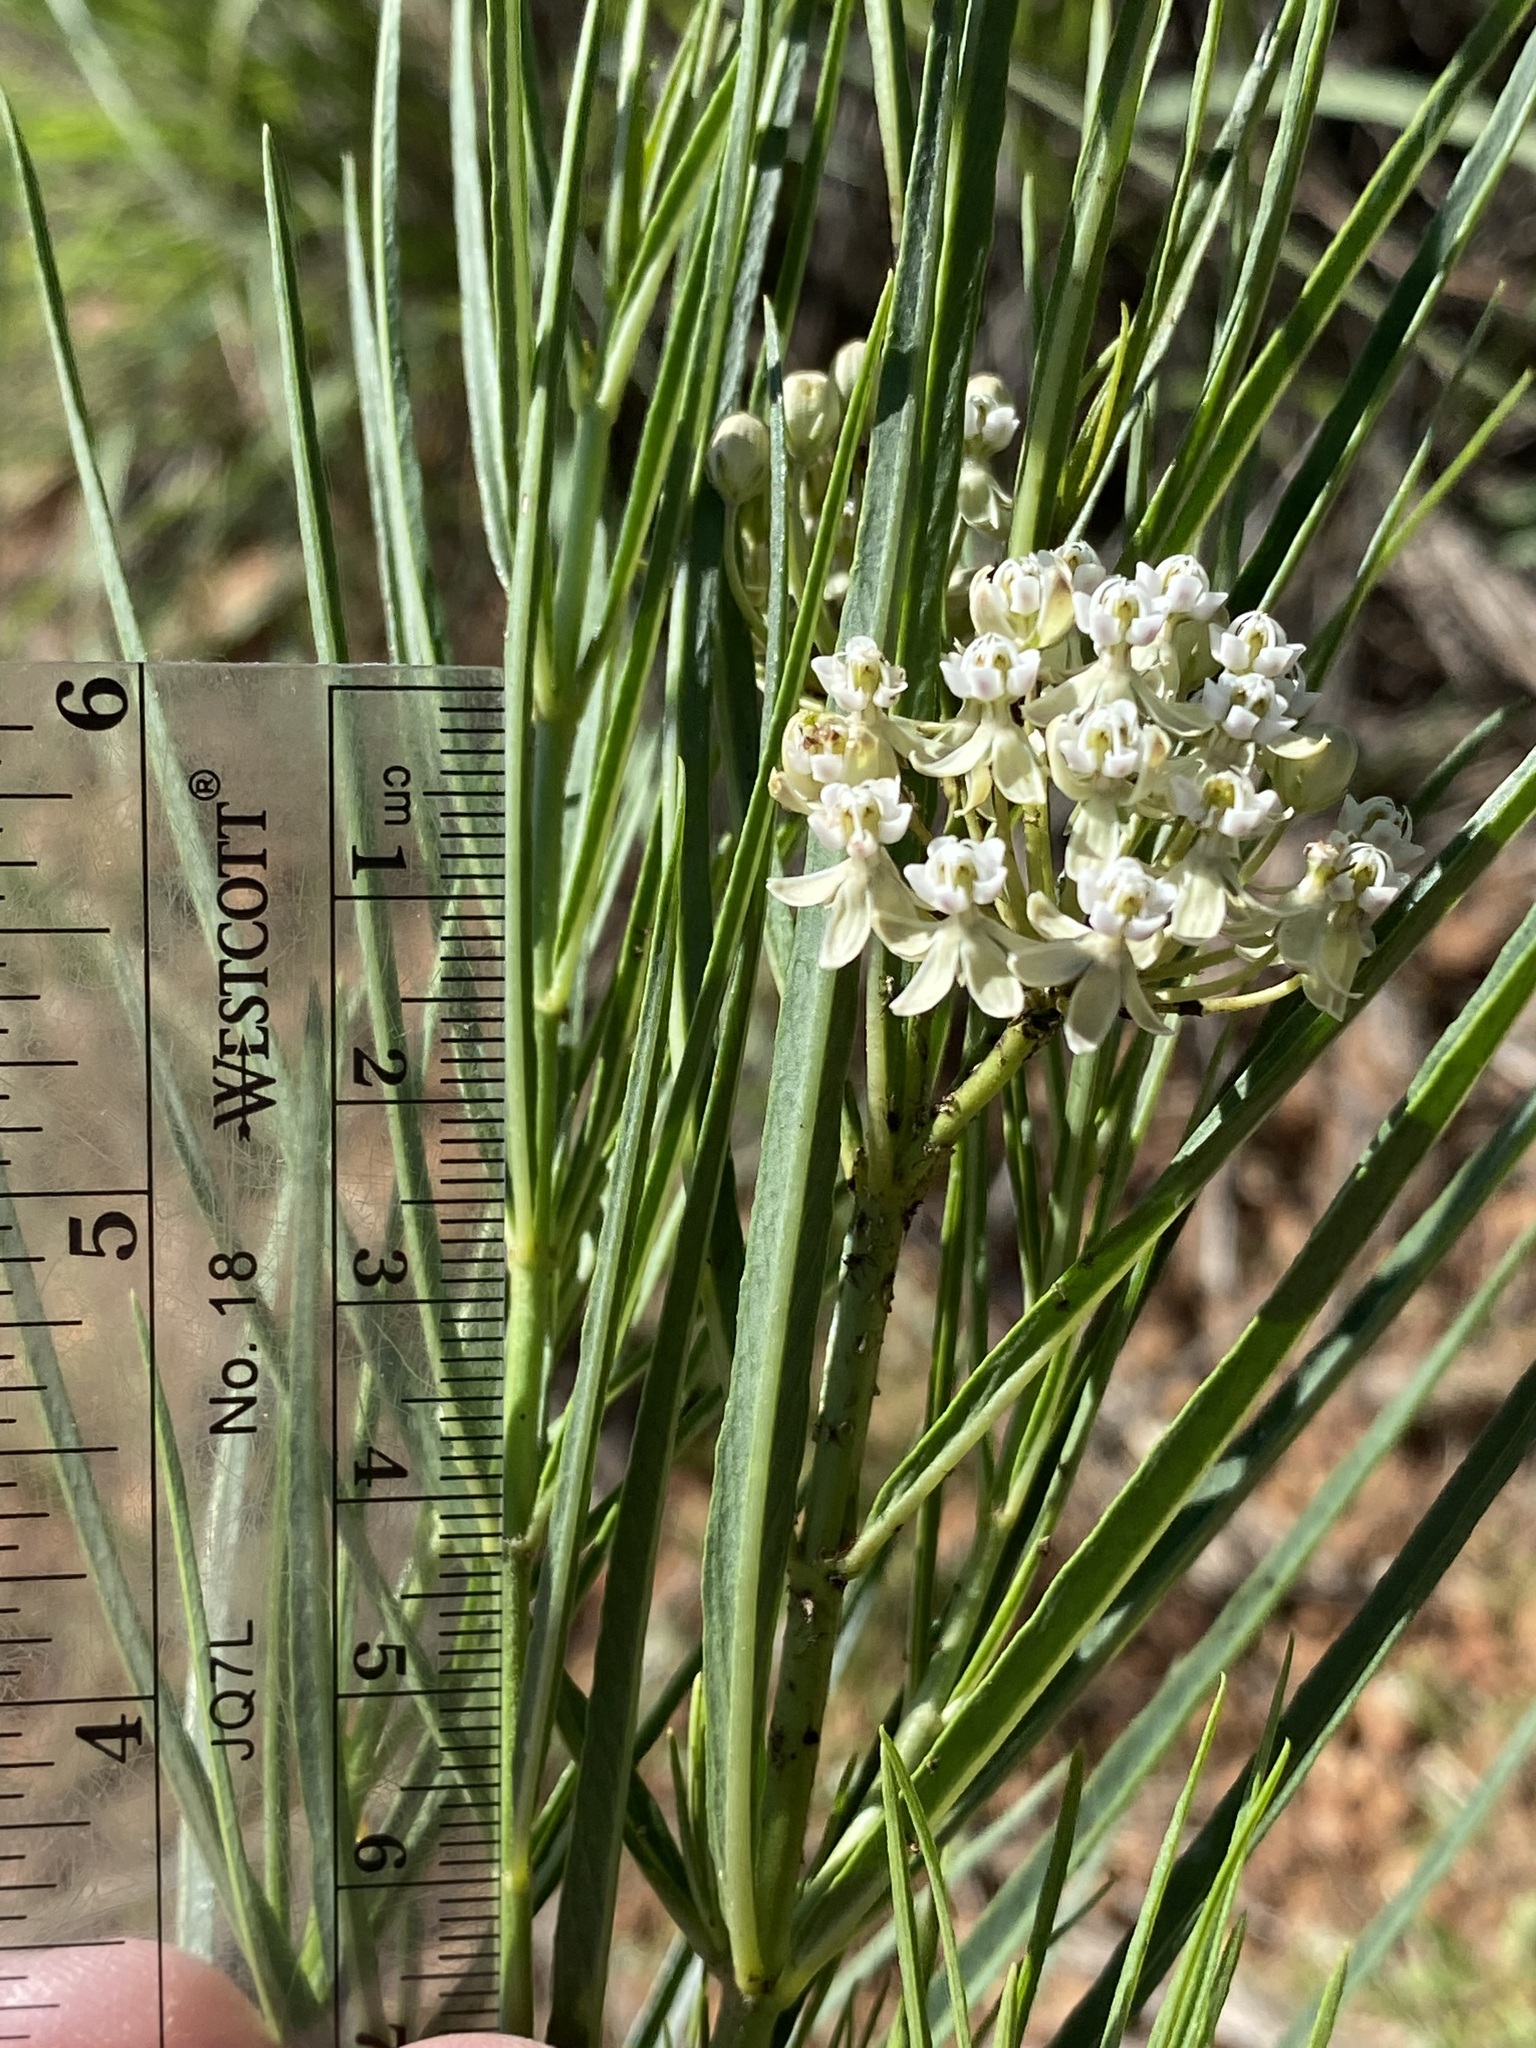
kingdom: Plantae
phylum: Tracheophyta
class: Magnoliopsida
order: Gentianales
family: Apocynaceae
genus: Asclepias
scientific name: Asclepias subverticillata
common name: Horsetail milkweed
